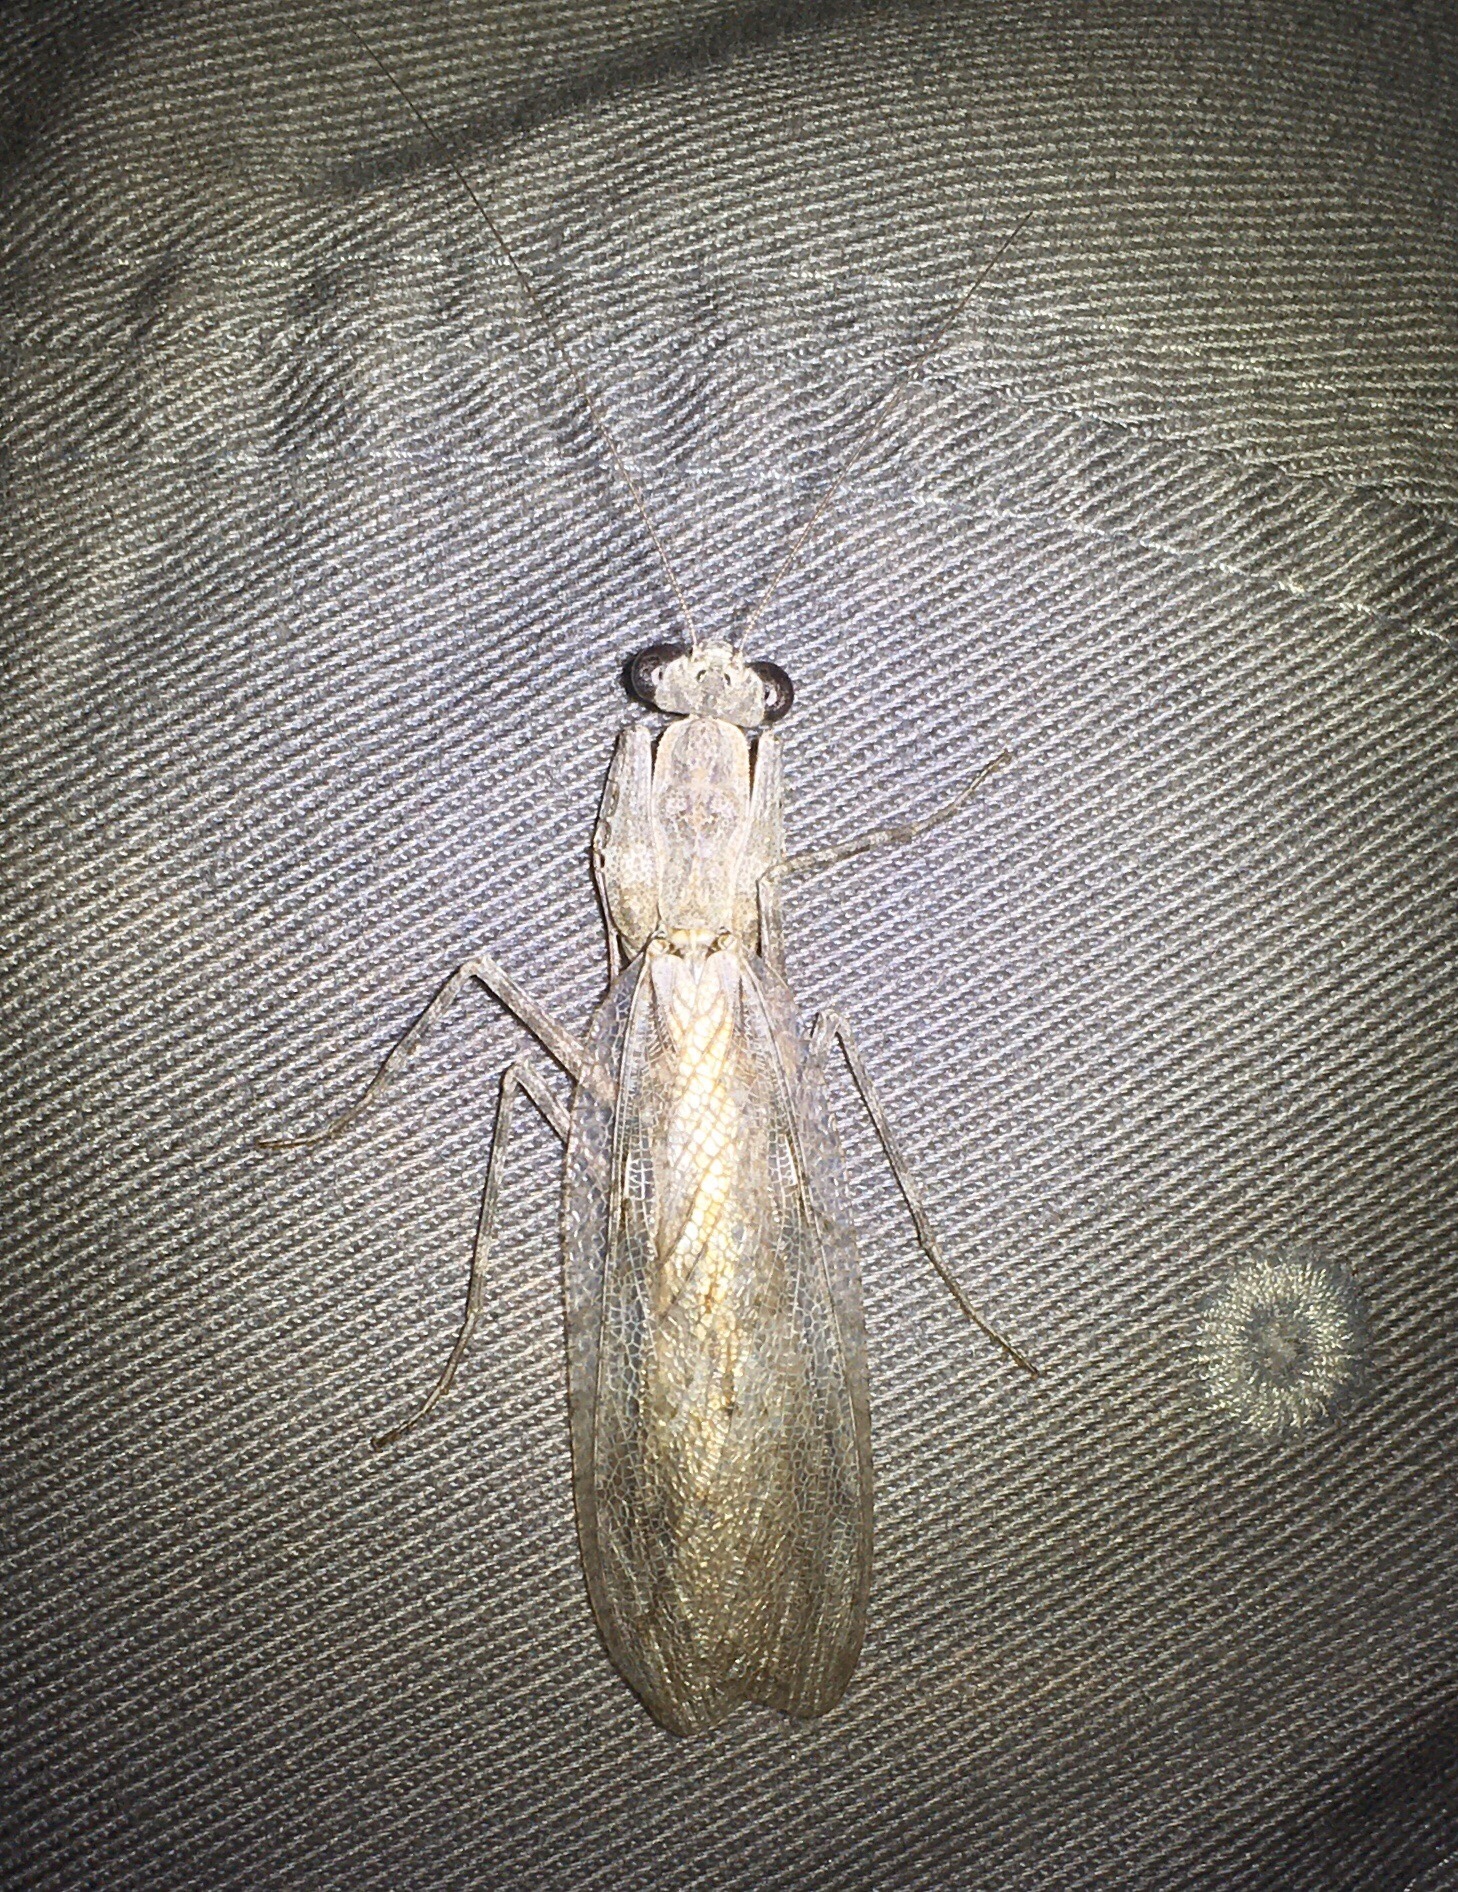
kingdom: Animalia
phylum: Arthropoda
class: Insecta
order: Mantodea
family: Epaphroditidae
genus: Gonatista
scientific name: Gonatista grisea
